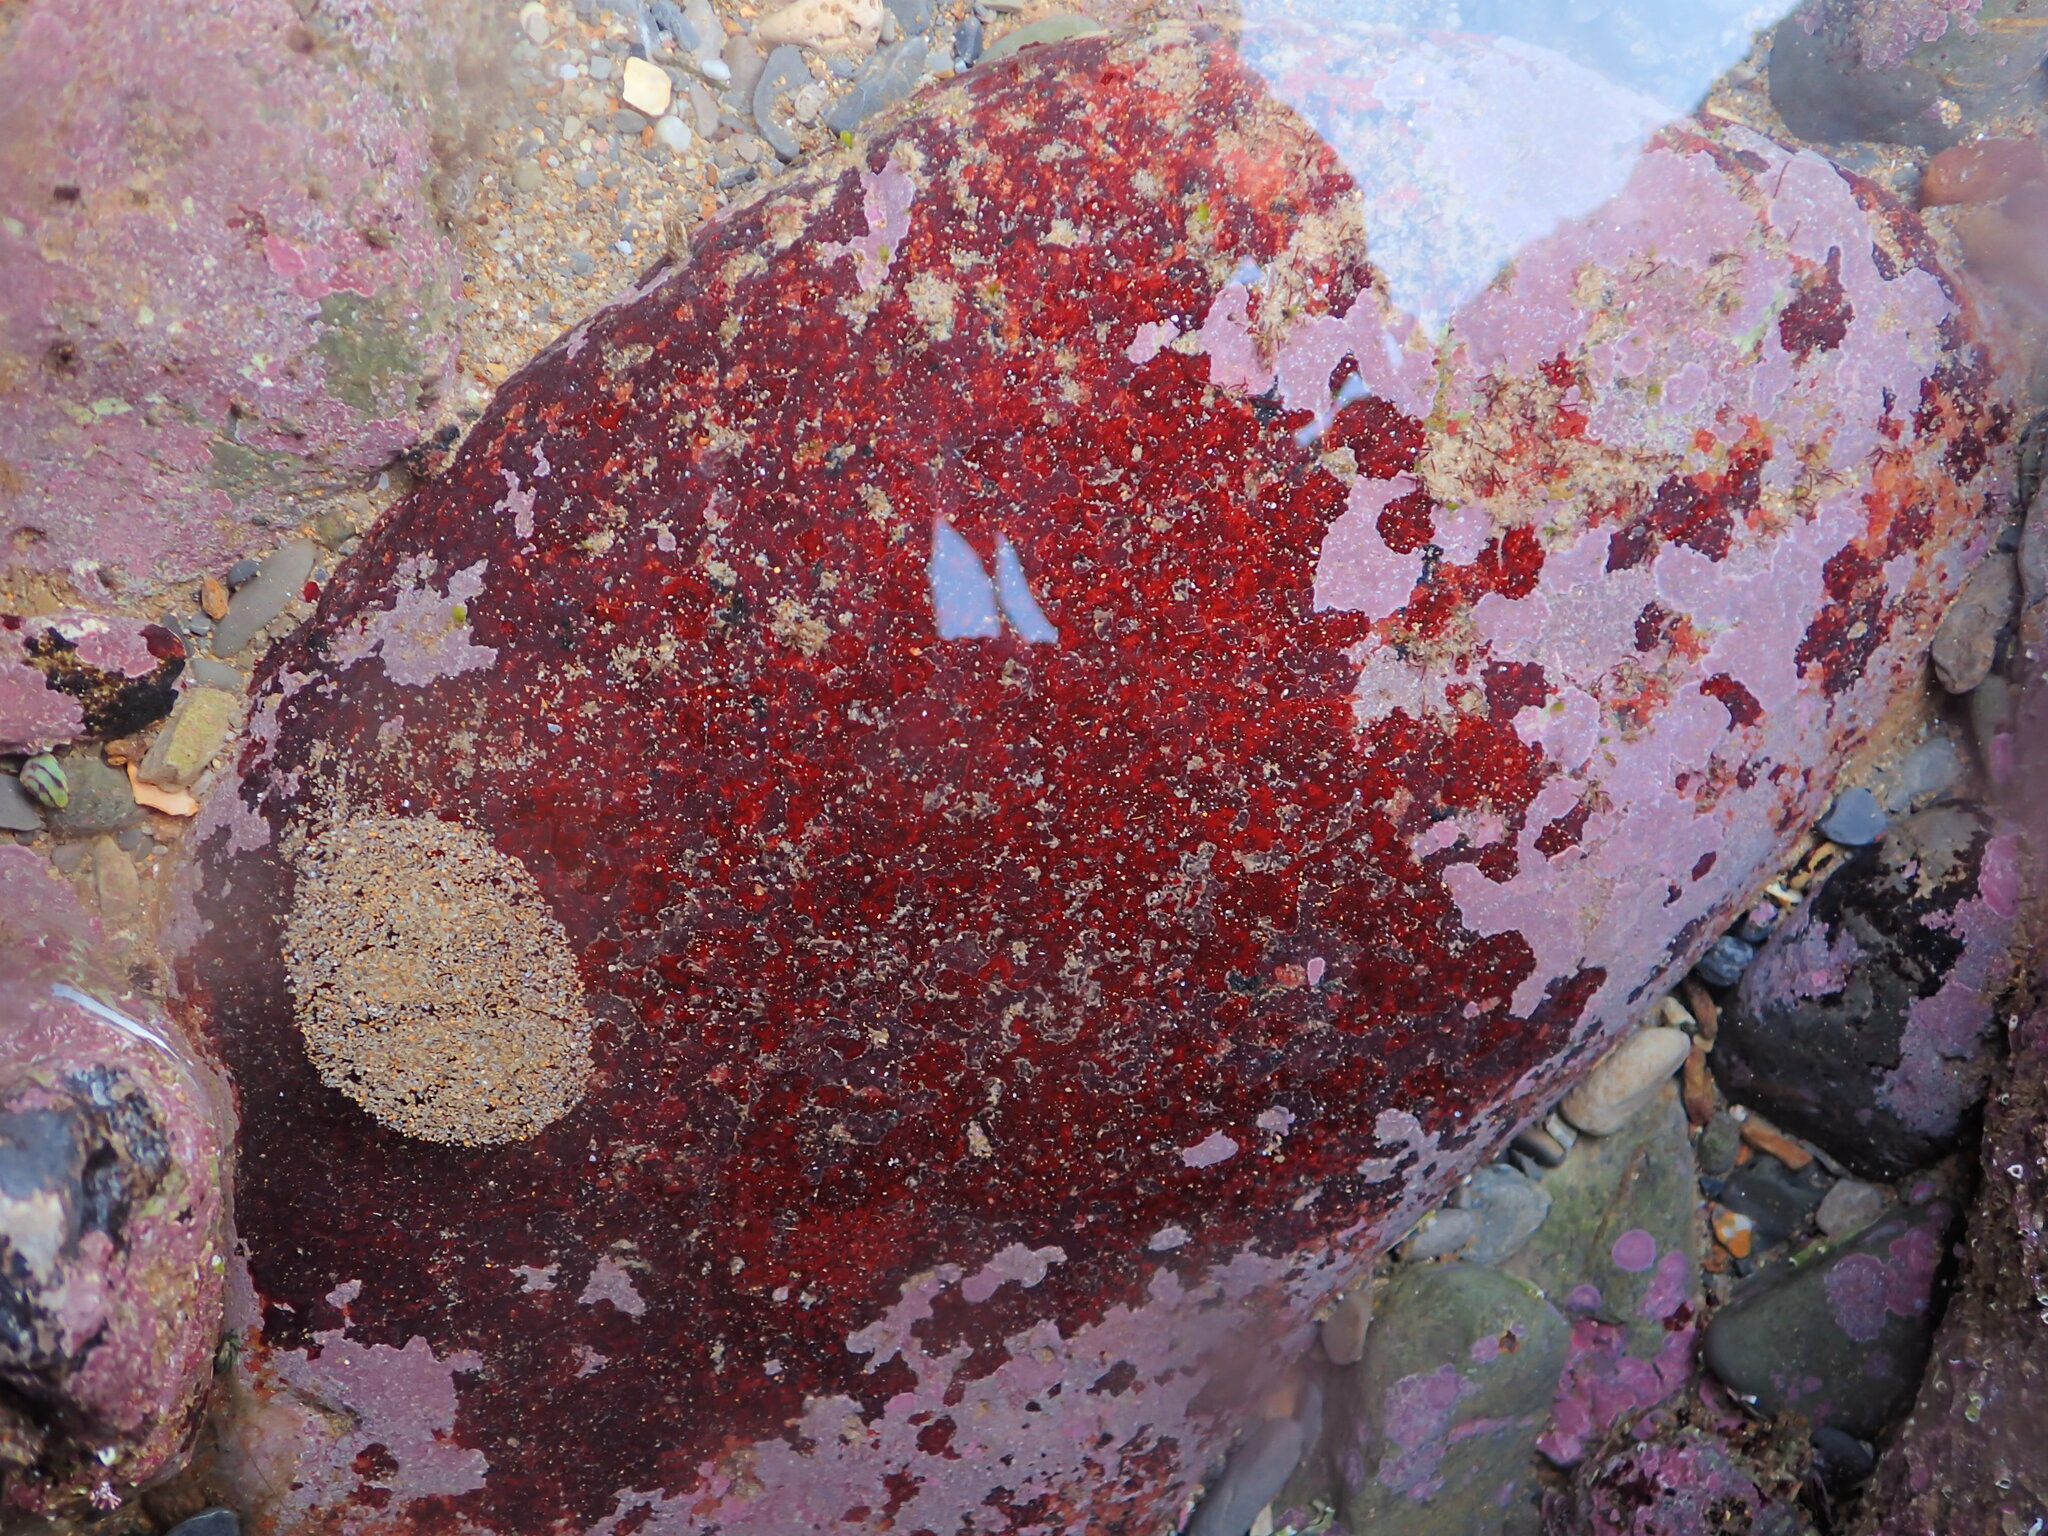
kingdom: Plantae
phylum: Rhodophyta
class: Florideophyceae
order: Hildenbrandiales
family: Hildenbrandiaceae
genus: Hildenbrandia
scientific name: Hildenbrandia rubra
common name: Rusty rock
